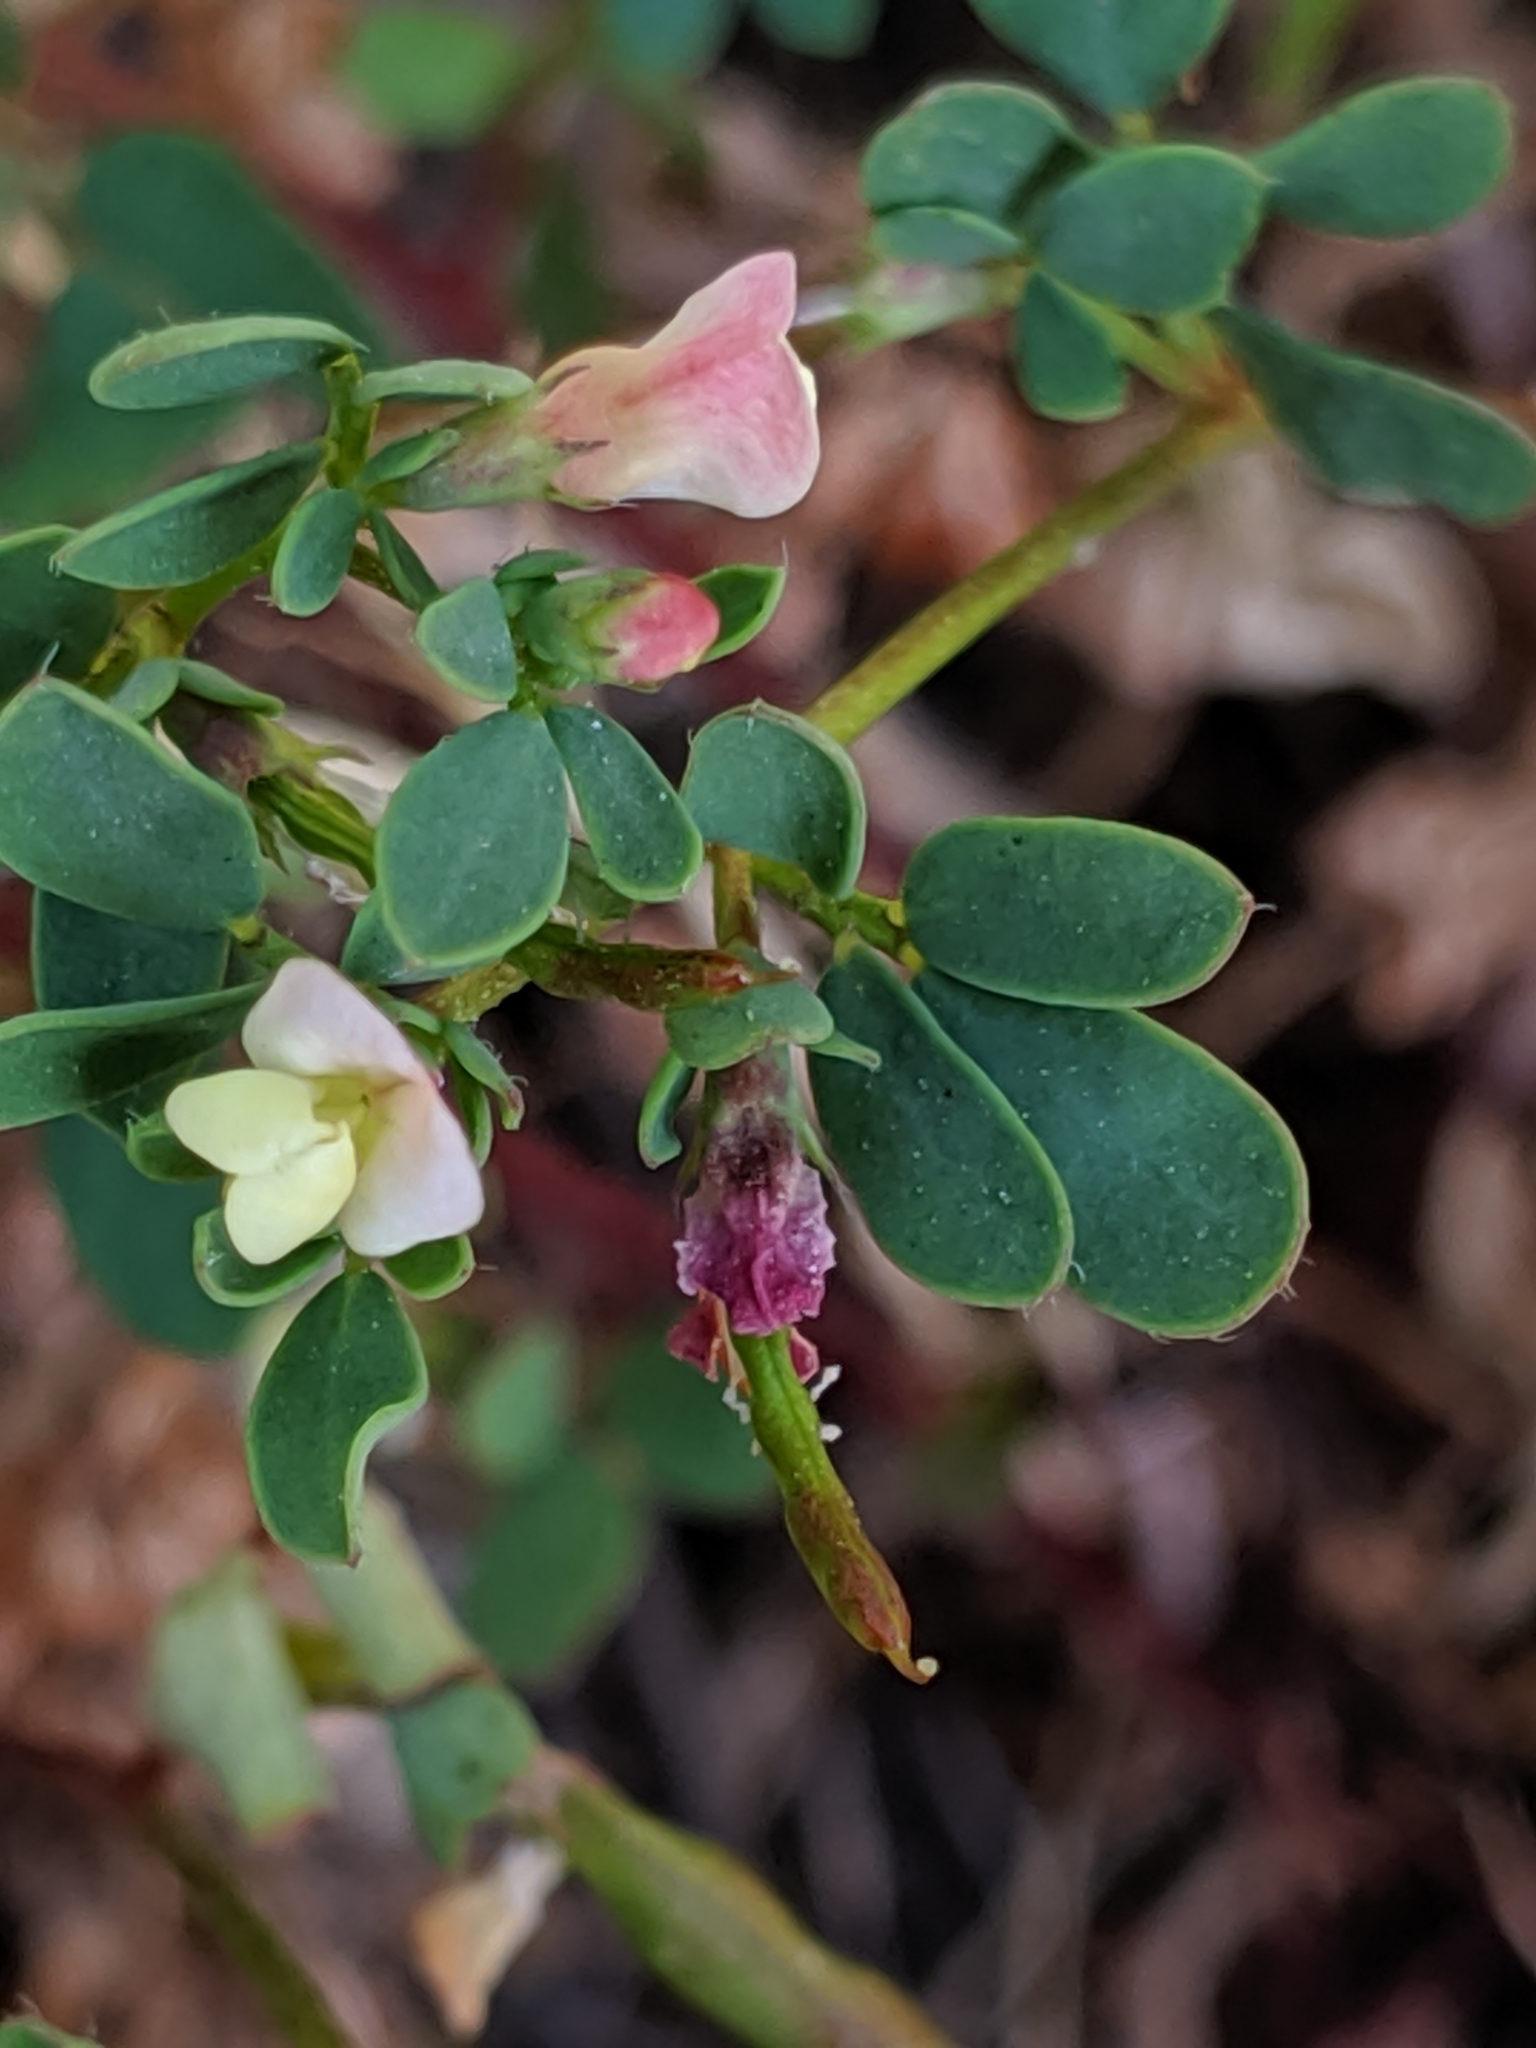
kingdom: Plantae
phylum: Tracheophyta
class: Magnoliopsida
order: Fabales
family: Fabaceae
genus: Acmispon
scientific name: Acmispon parviflorus
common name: Desert deer-vetch
